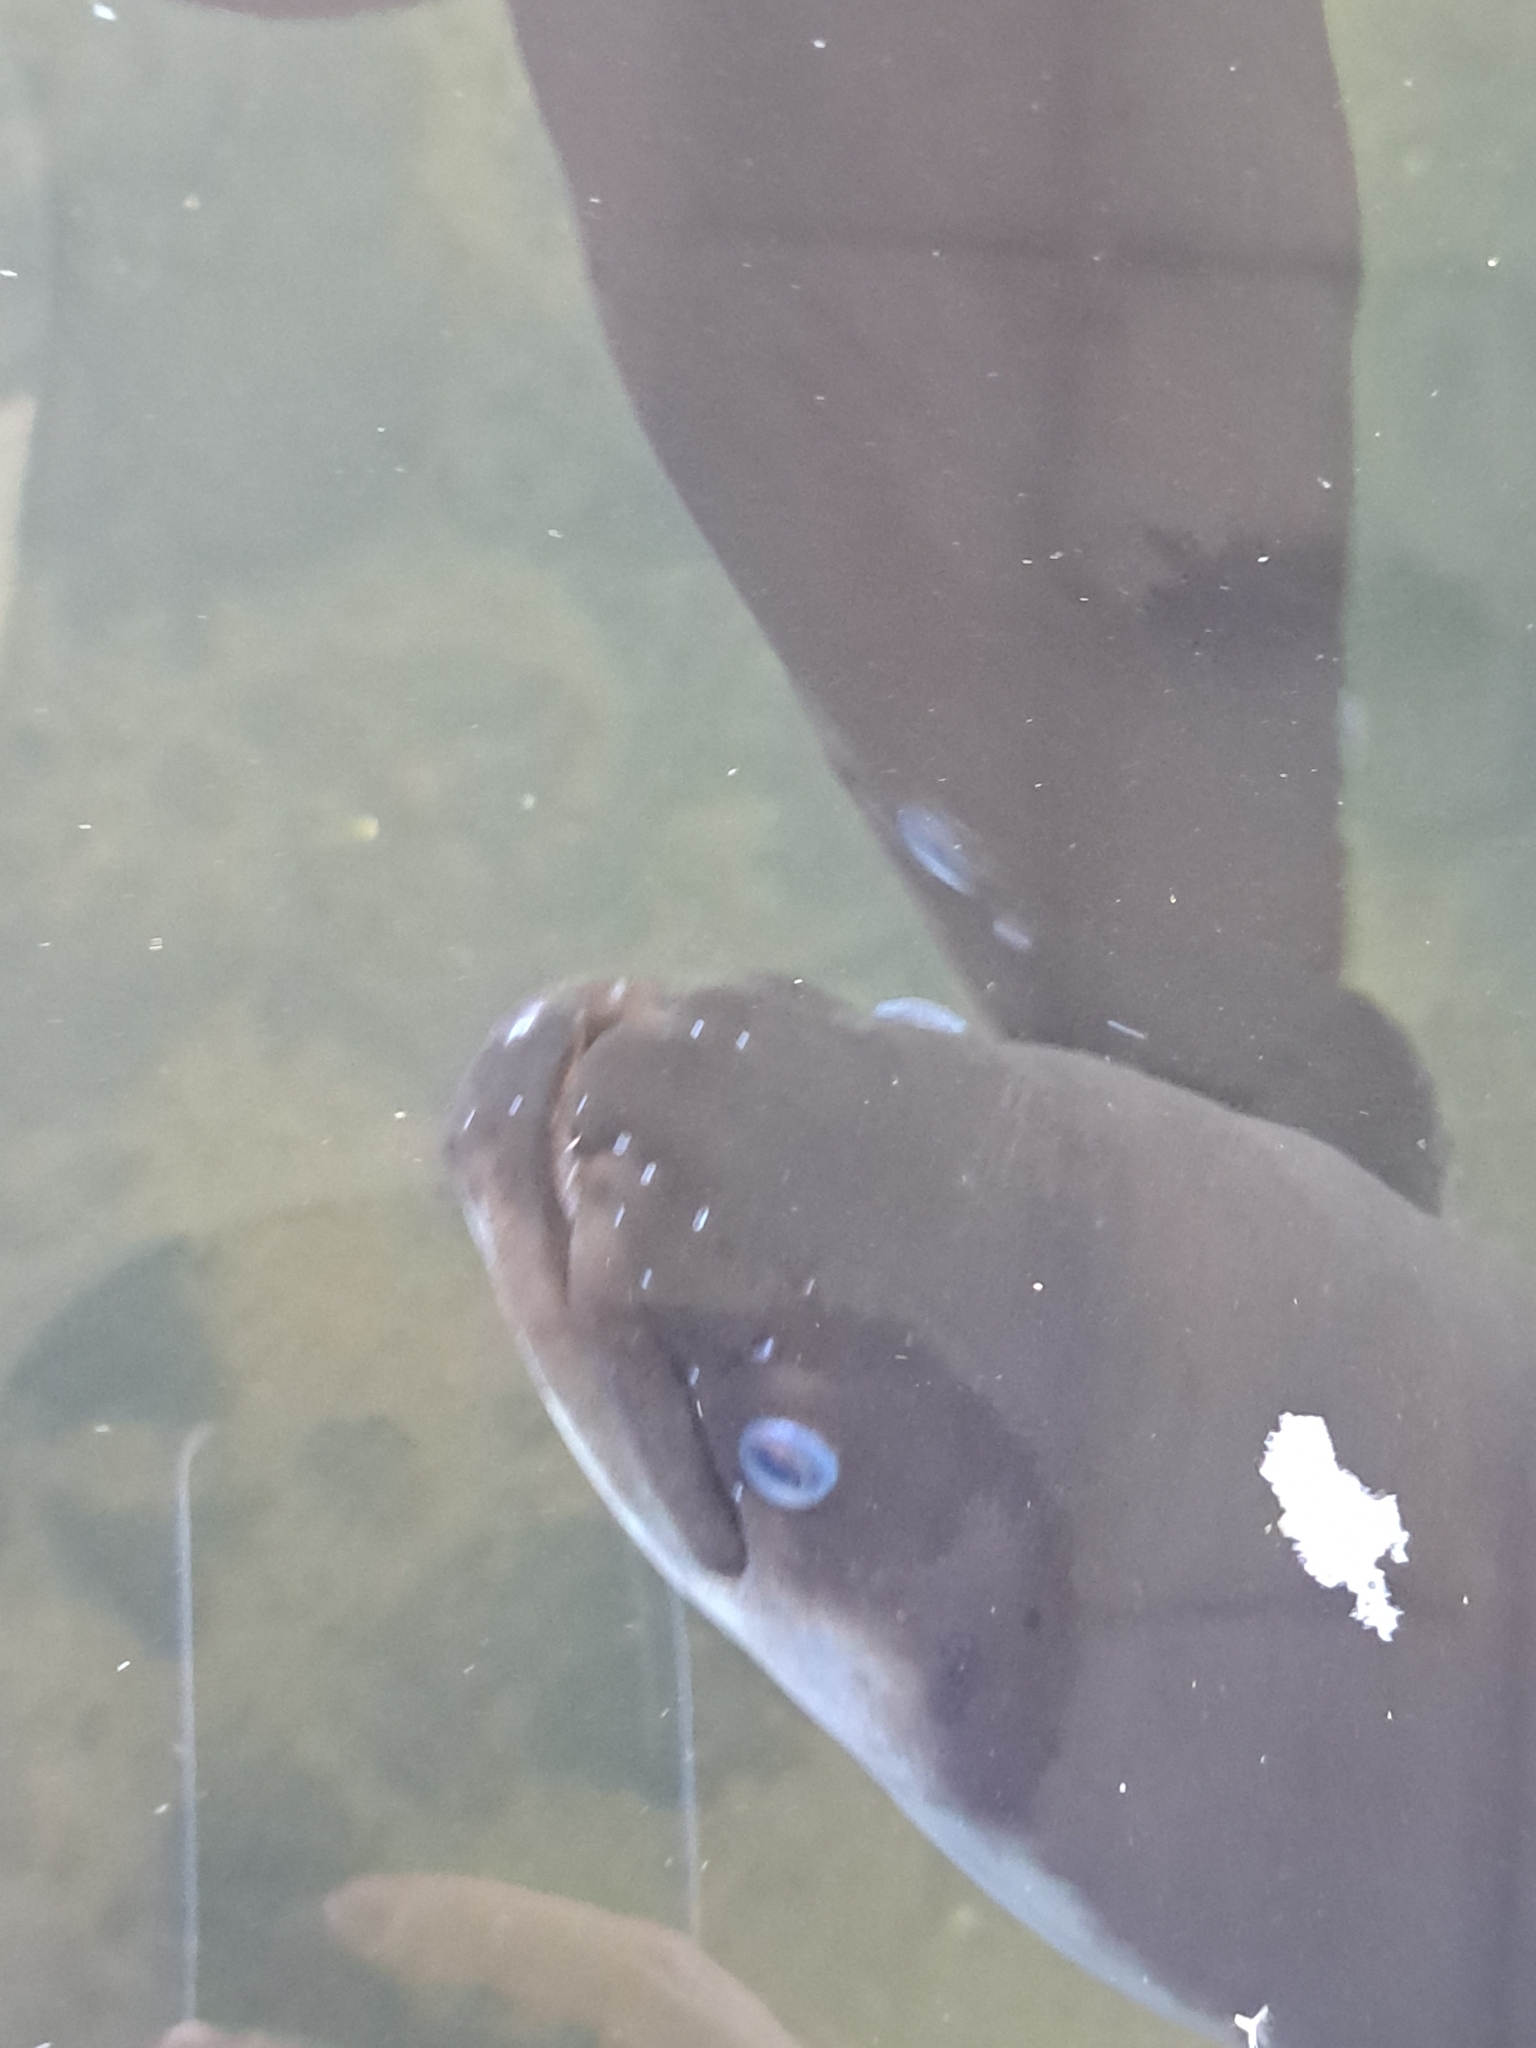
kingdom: Animalia
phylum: Chordata
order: Anguilliformes
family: Anguillidae
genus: Anguilla
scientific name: Anguilla dieffenbachii
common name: New zealand longfin eel
